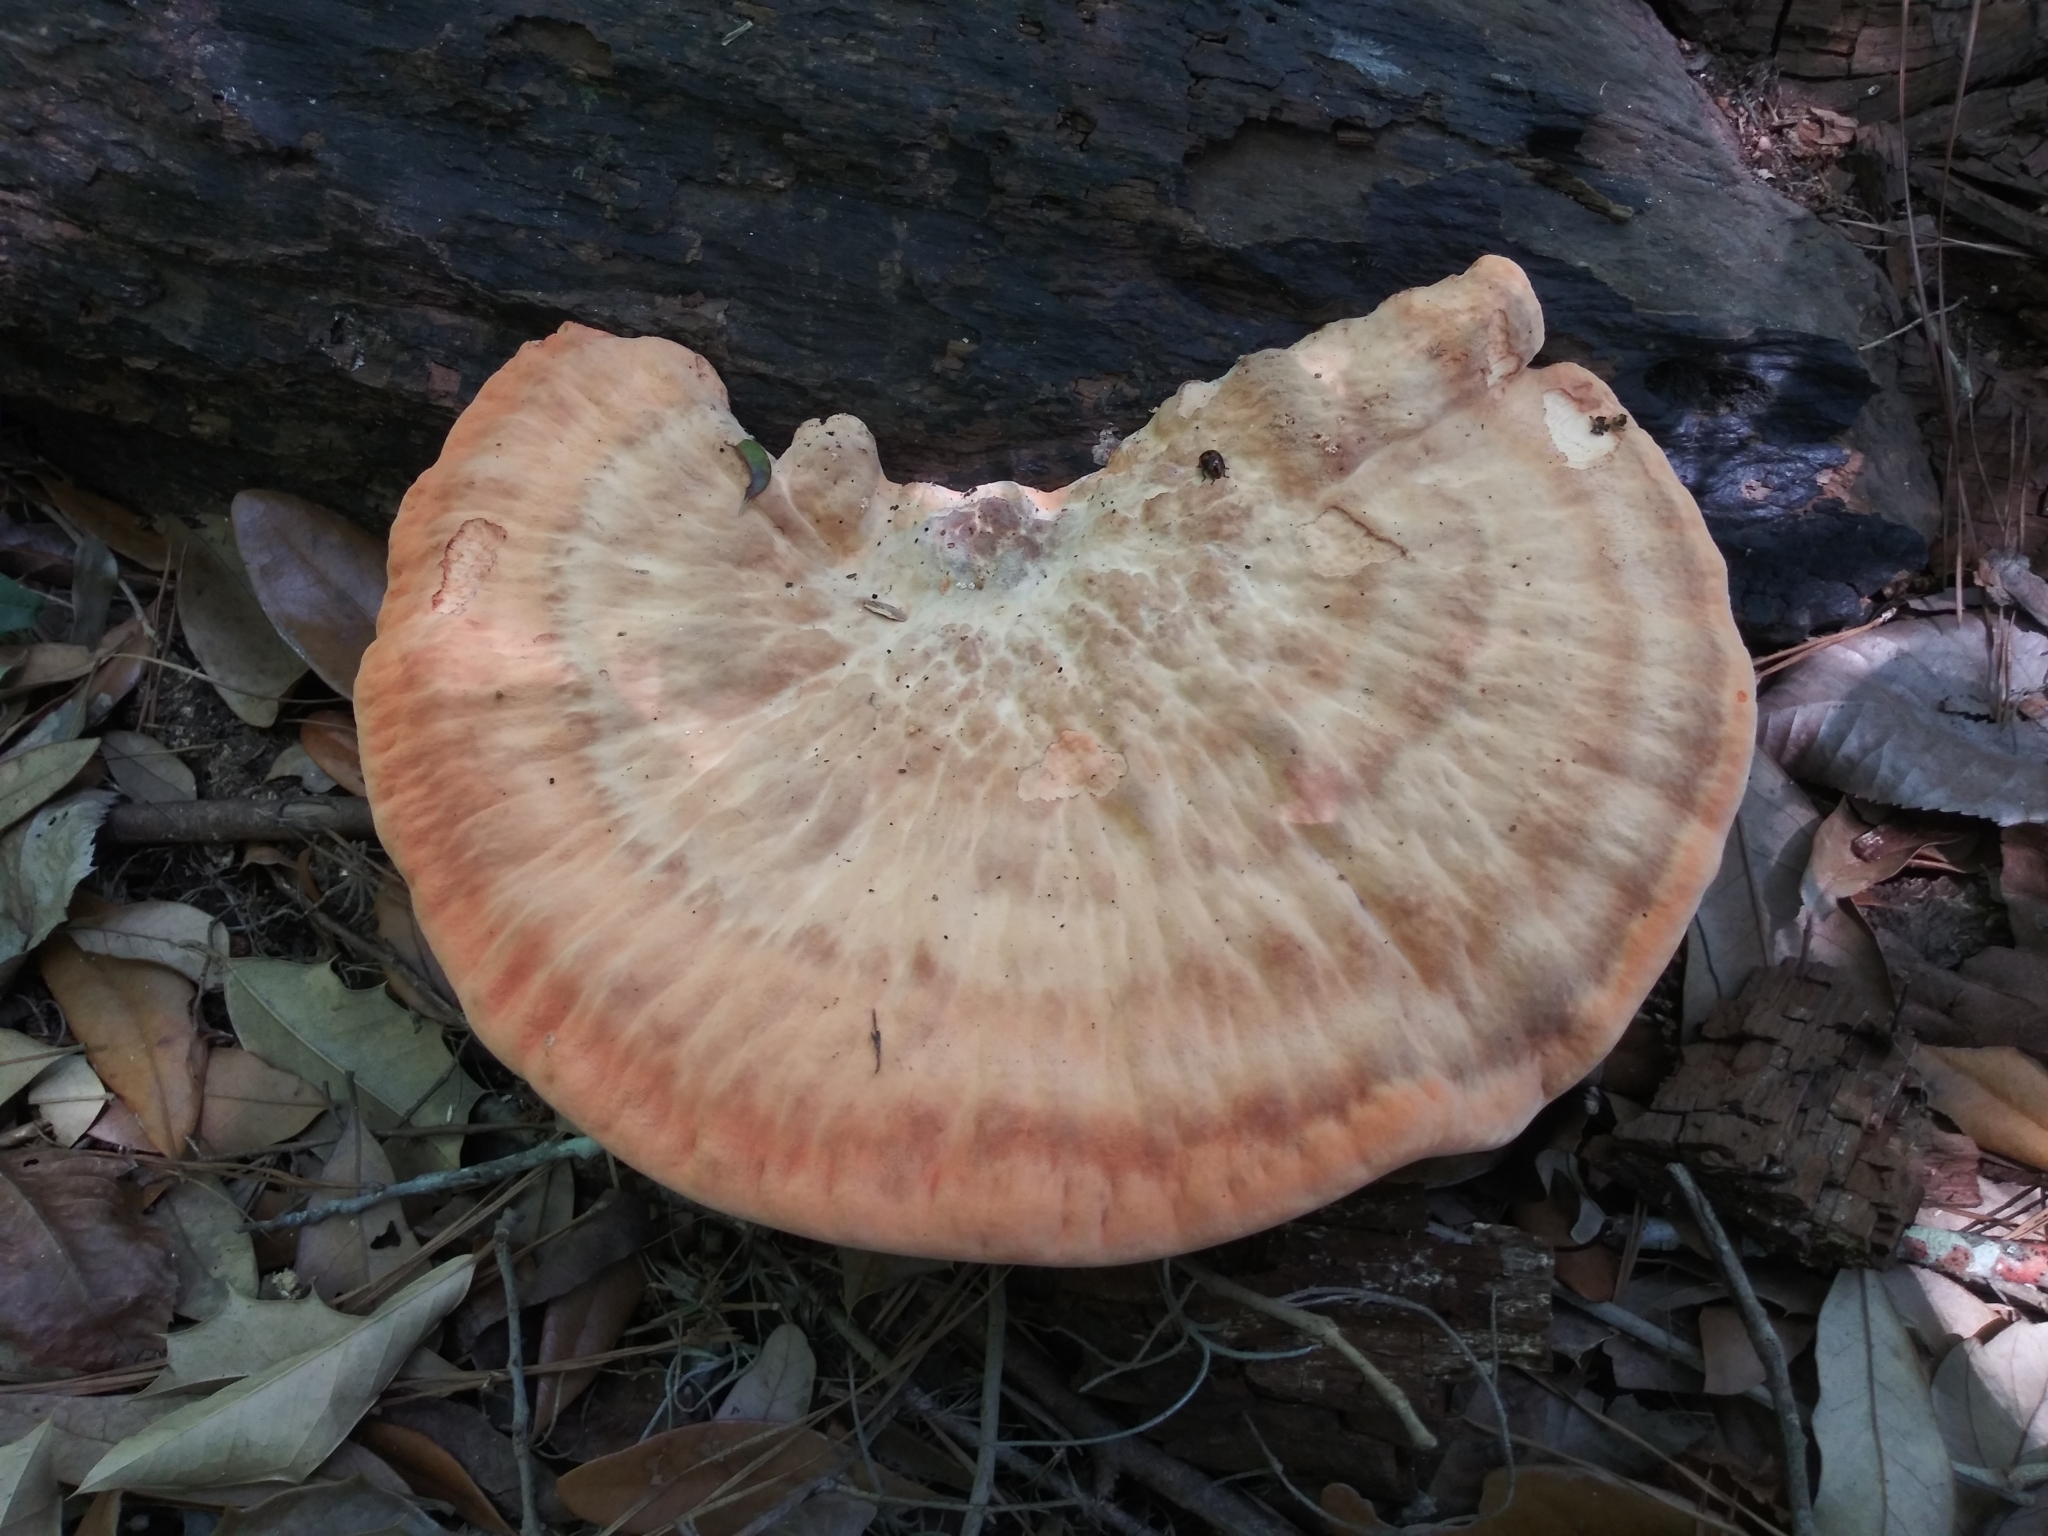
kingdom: Fungi
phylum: Basidiomycota
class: Agaricomycetes
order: Polyporales
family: Laetiporaceae
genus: Laetiporus
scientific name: Laetiporus sulphureus
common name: Chicken of the woods
